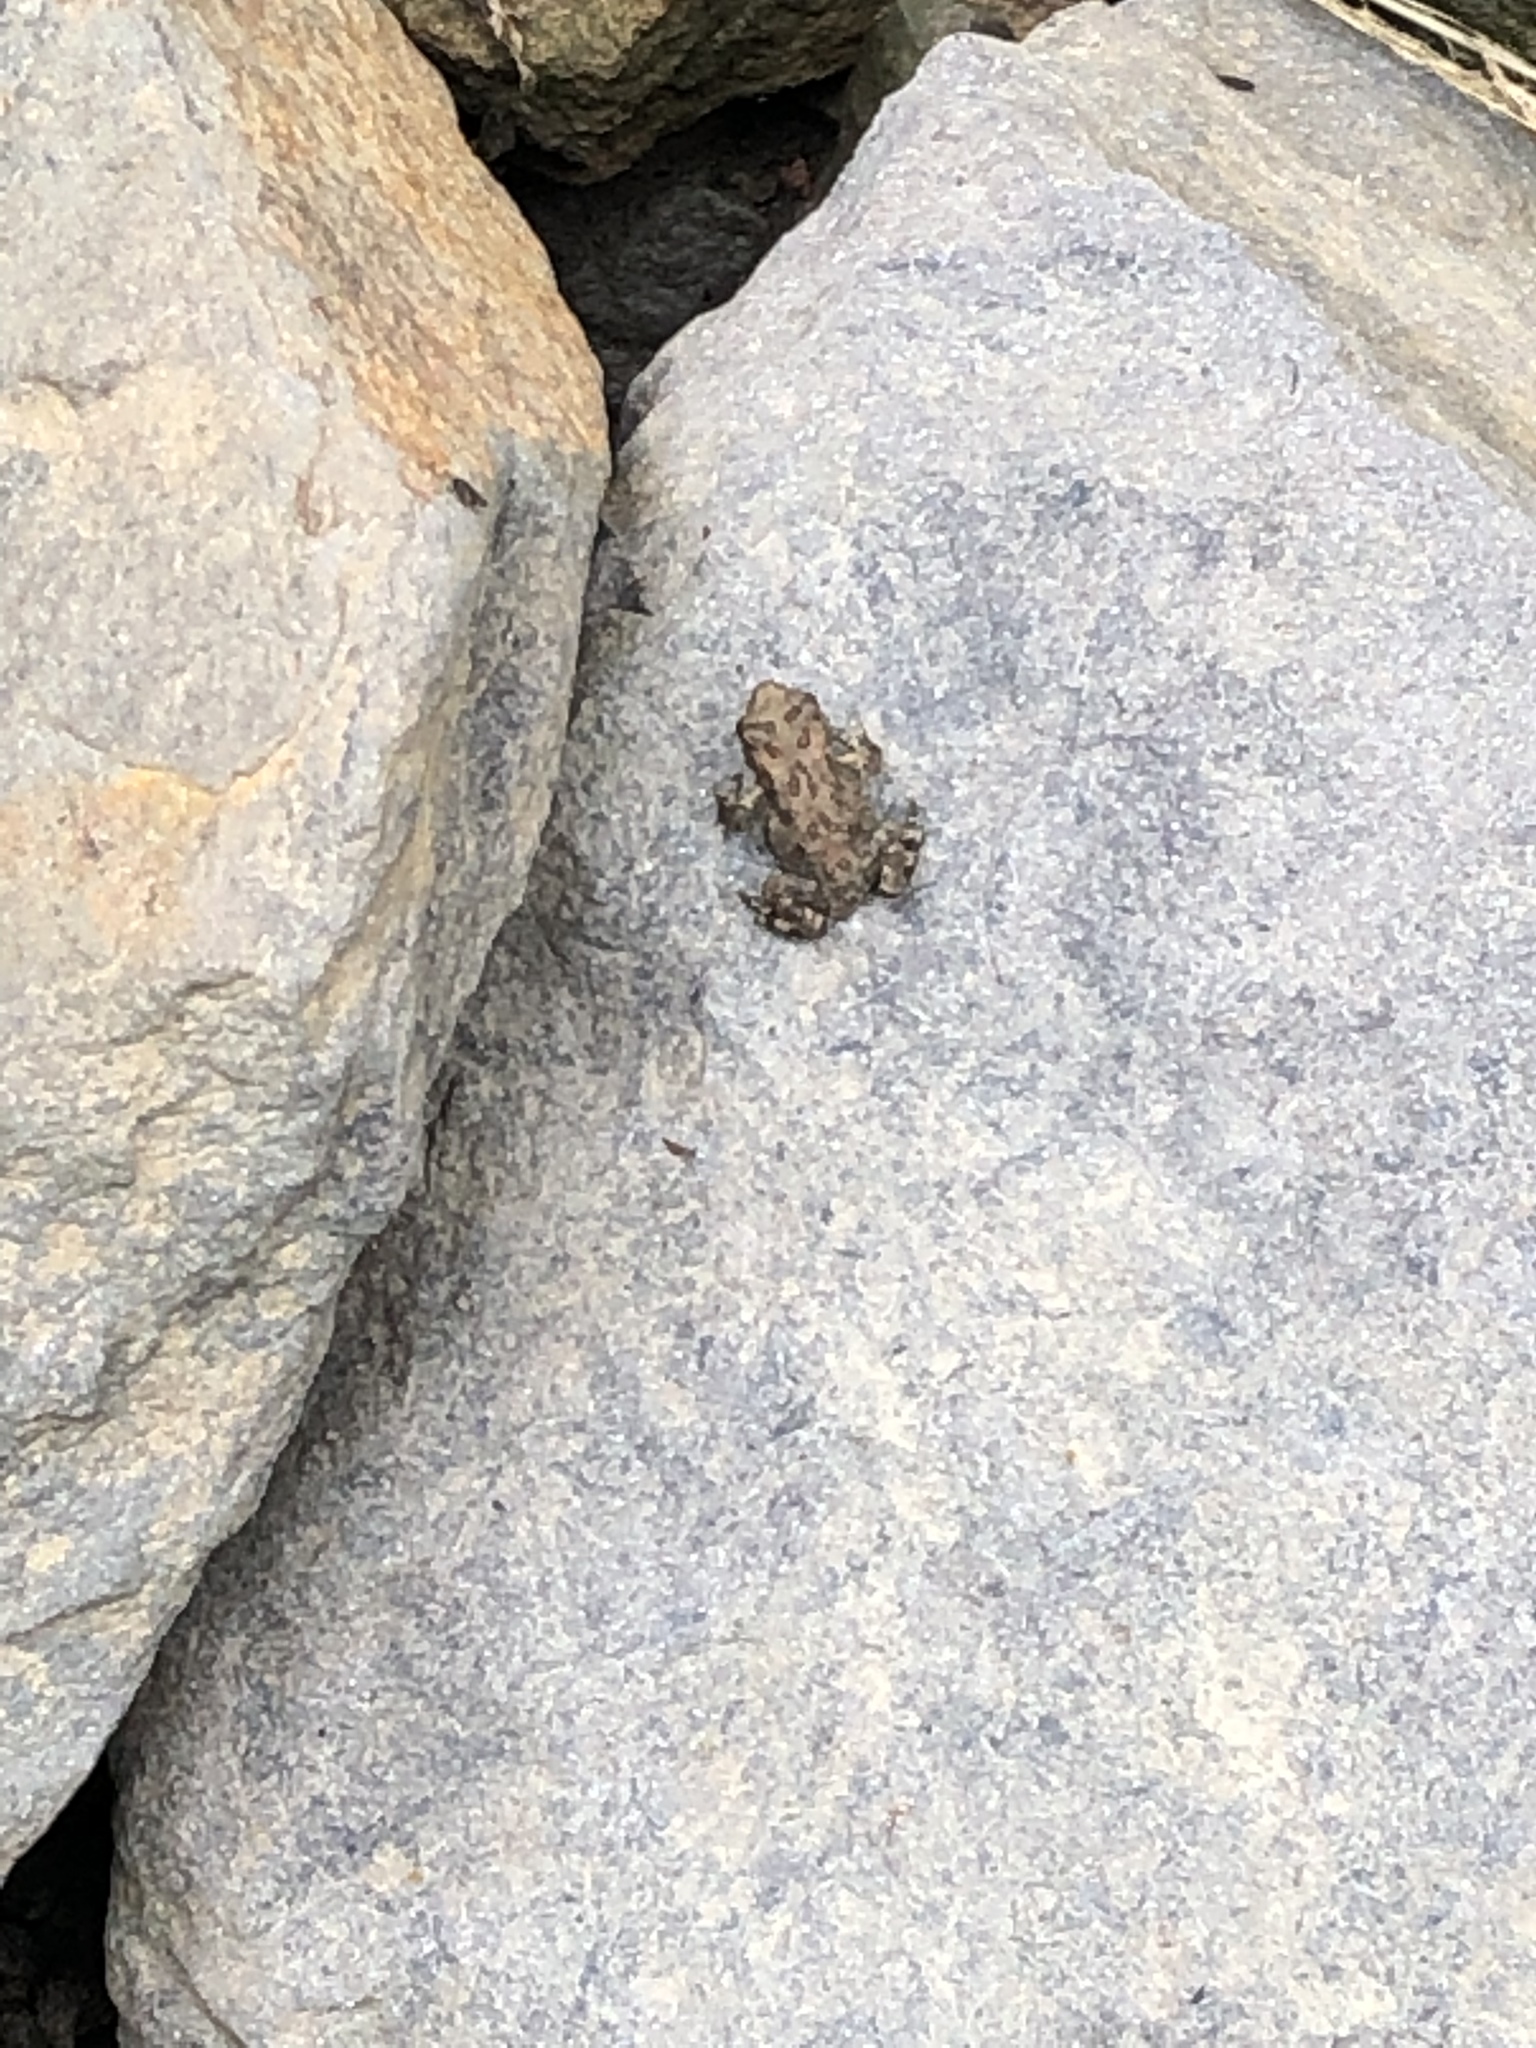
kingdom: Animalia
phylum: Chordata
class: Amphibia
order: Anura
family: Bufonidae
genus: Anaxyrus
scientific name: Anaxyrus americanus
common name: American toad
